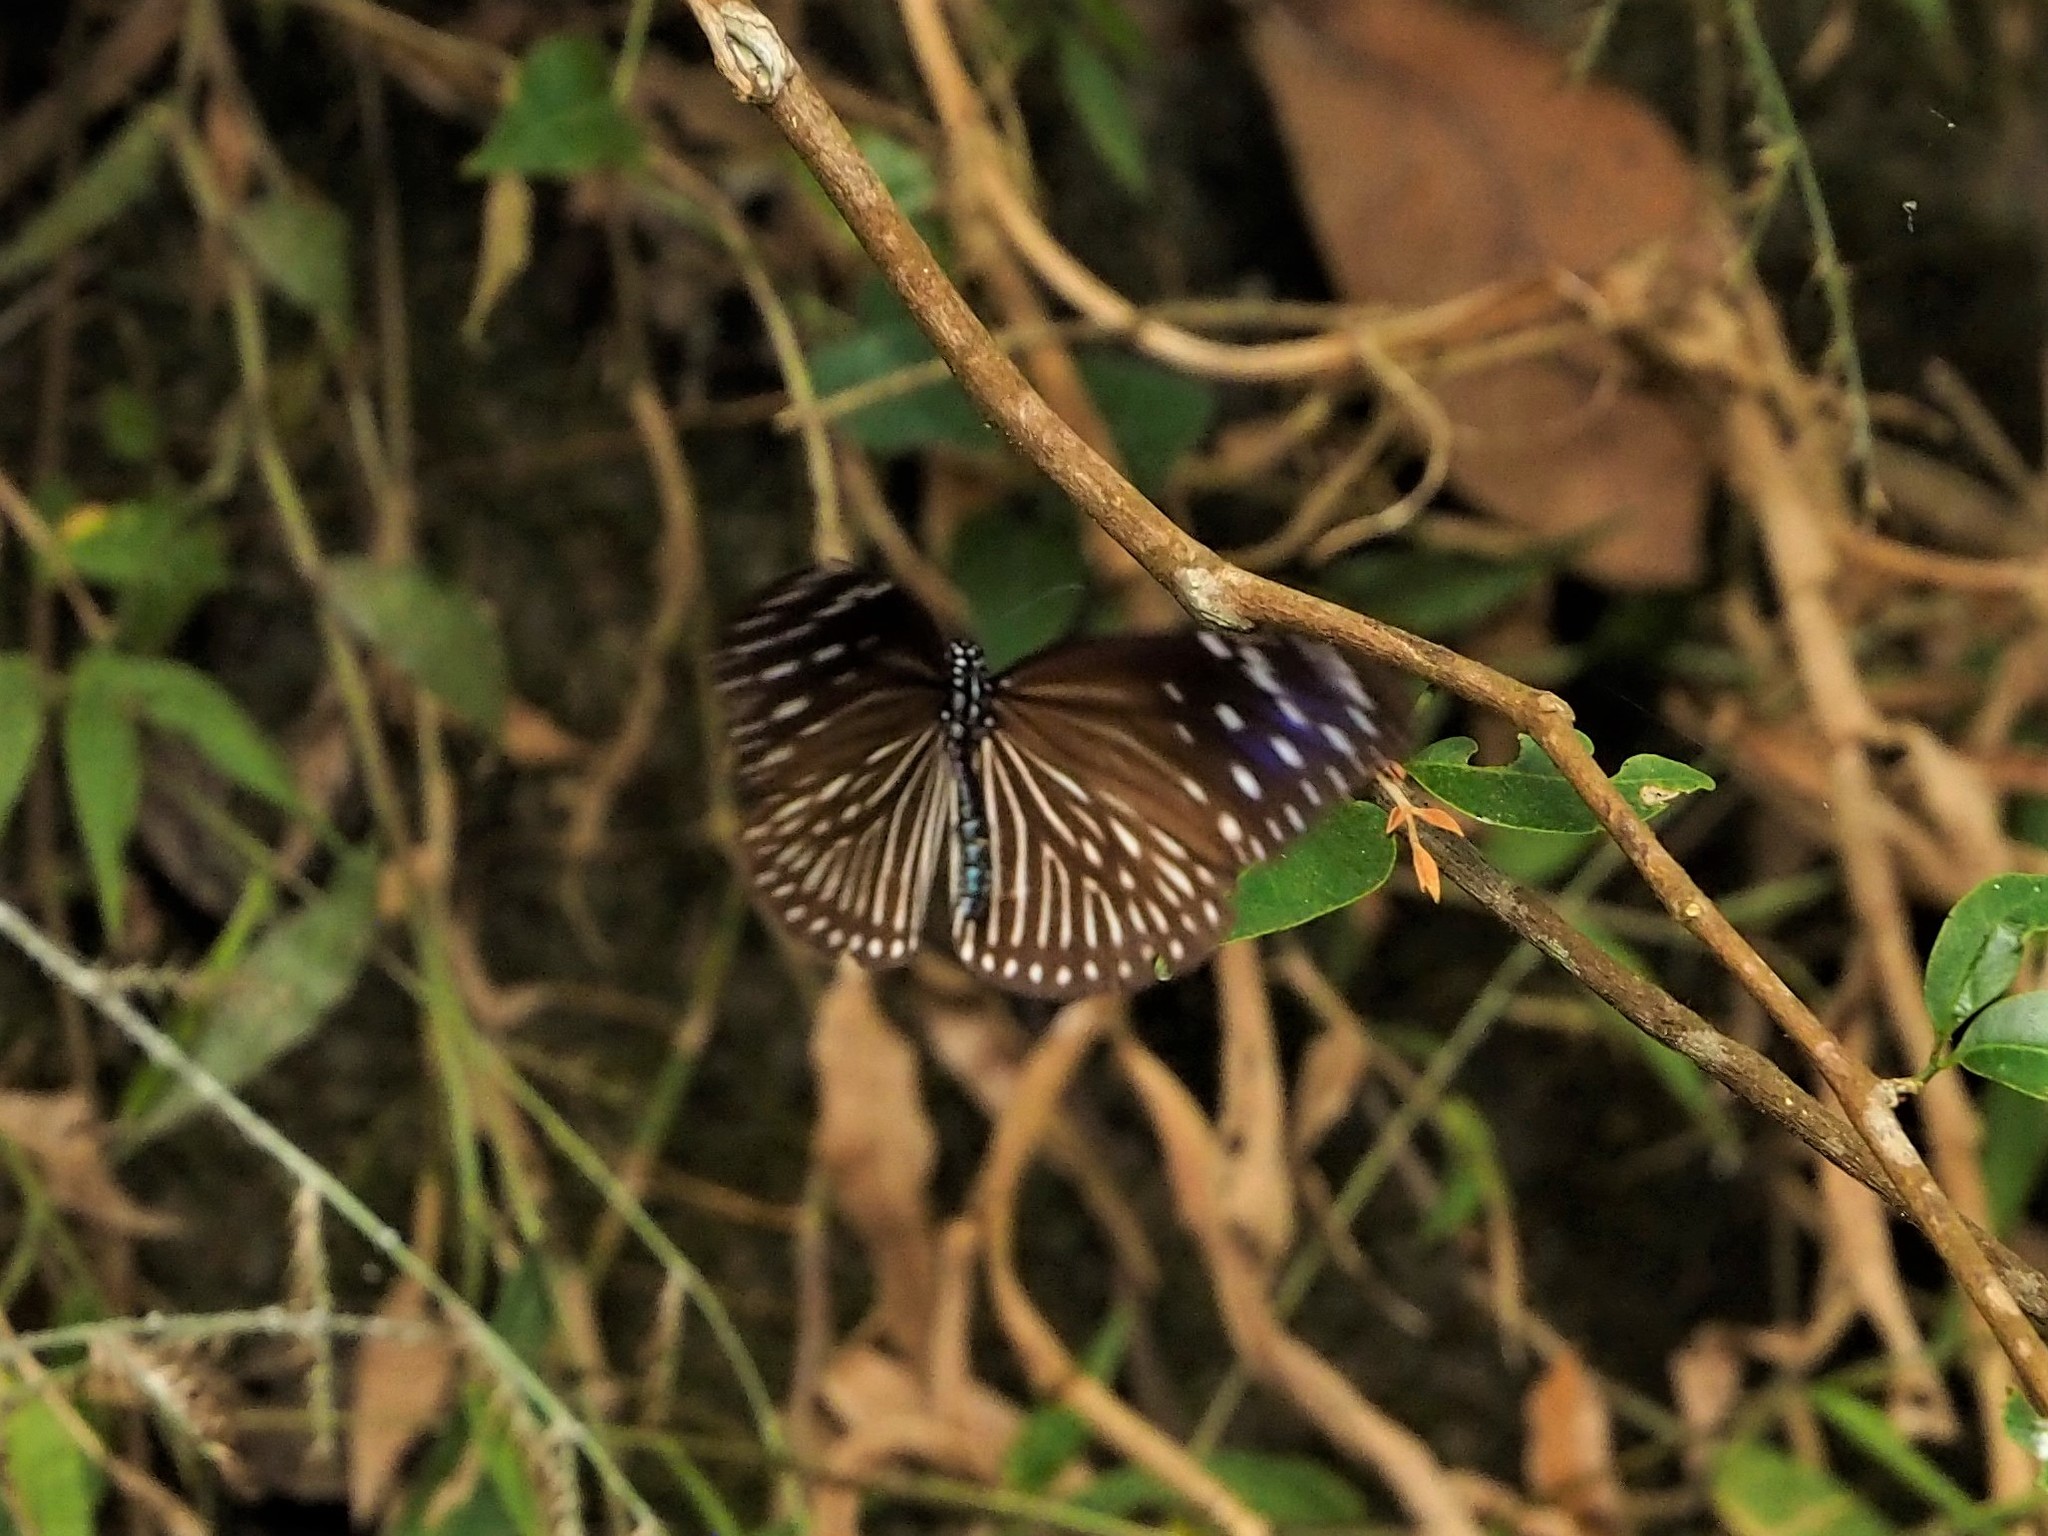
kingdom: Animalia
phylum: Arthropoda
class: Insecta
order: Lepidoptera
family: Nymphalidae
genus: Euploea
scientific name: Euploea mulciber
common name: Striped blue crow butterfly
